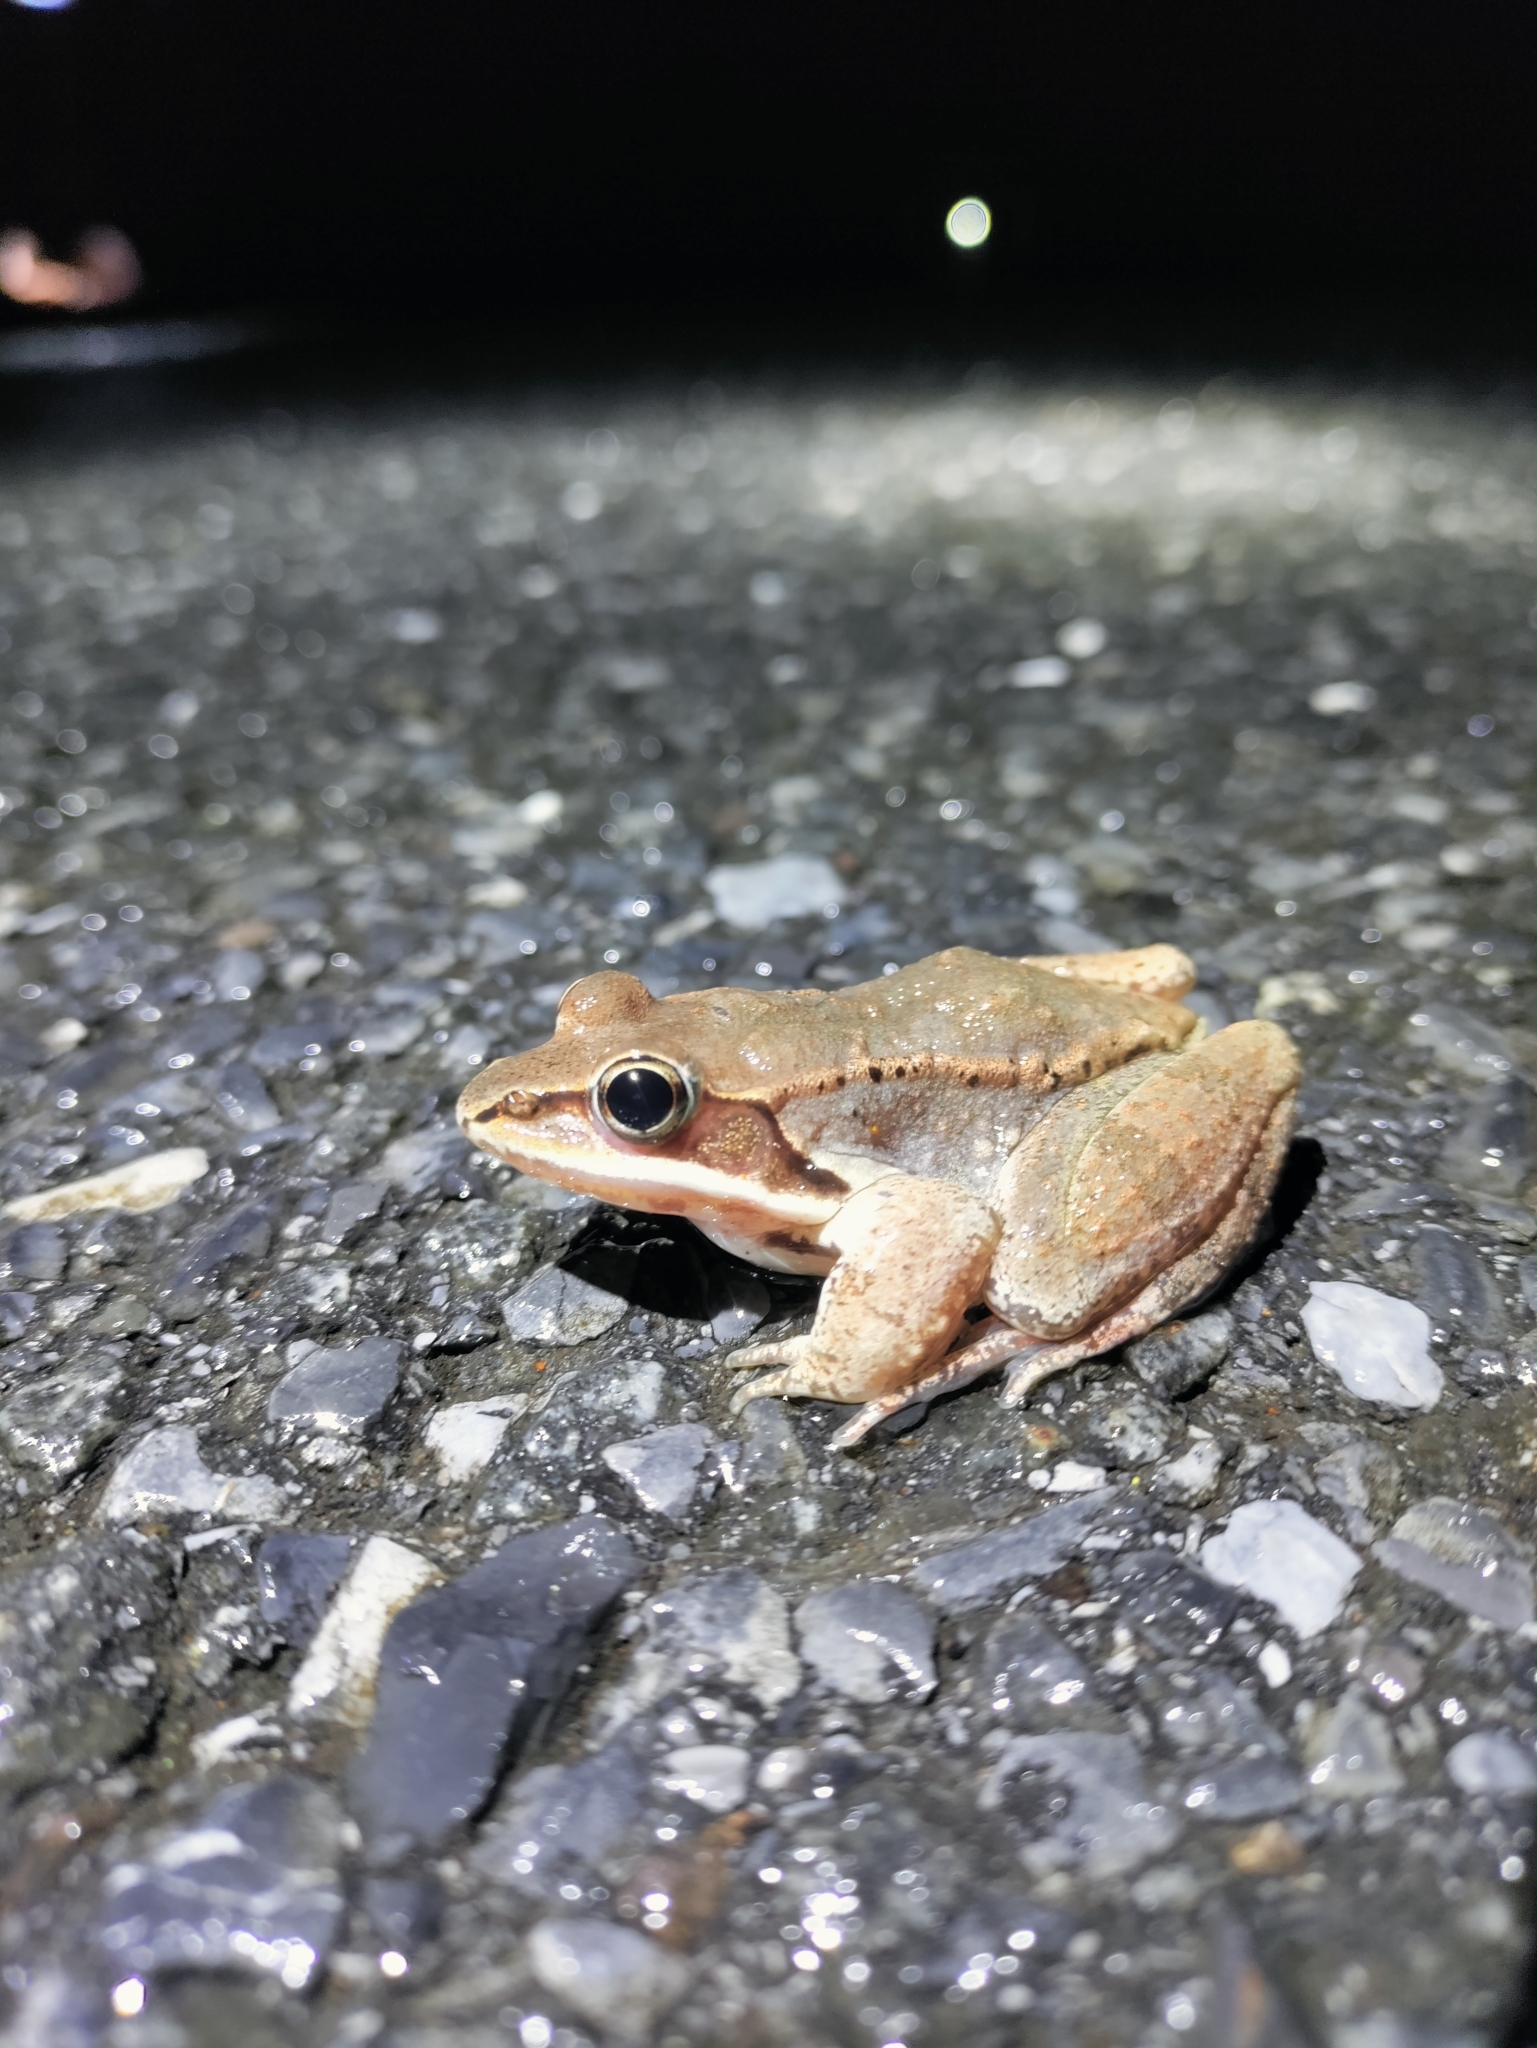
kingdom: Animalia
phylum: Chordata
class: Amphibia
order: Anura
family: Ranidae
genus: Lithobates
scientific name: Lithobates sylvaticus
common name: Wood frog
